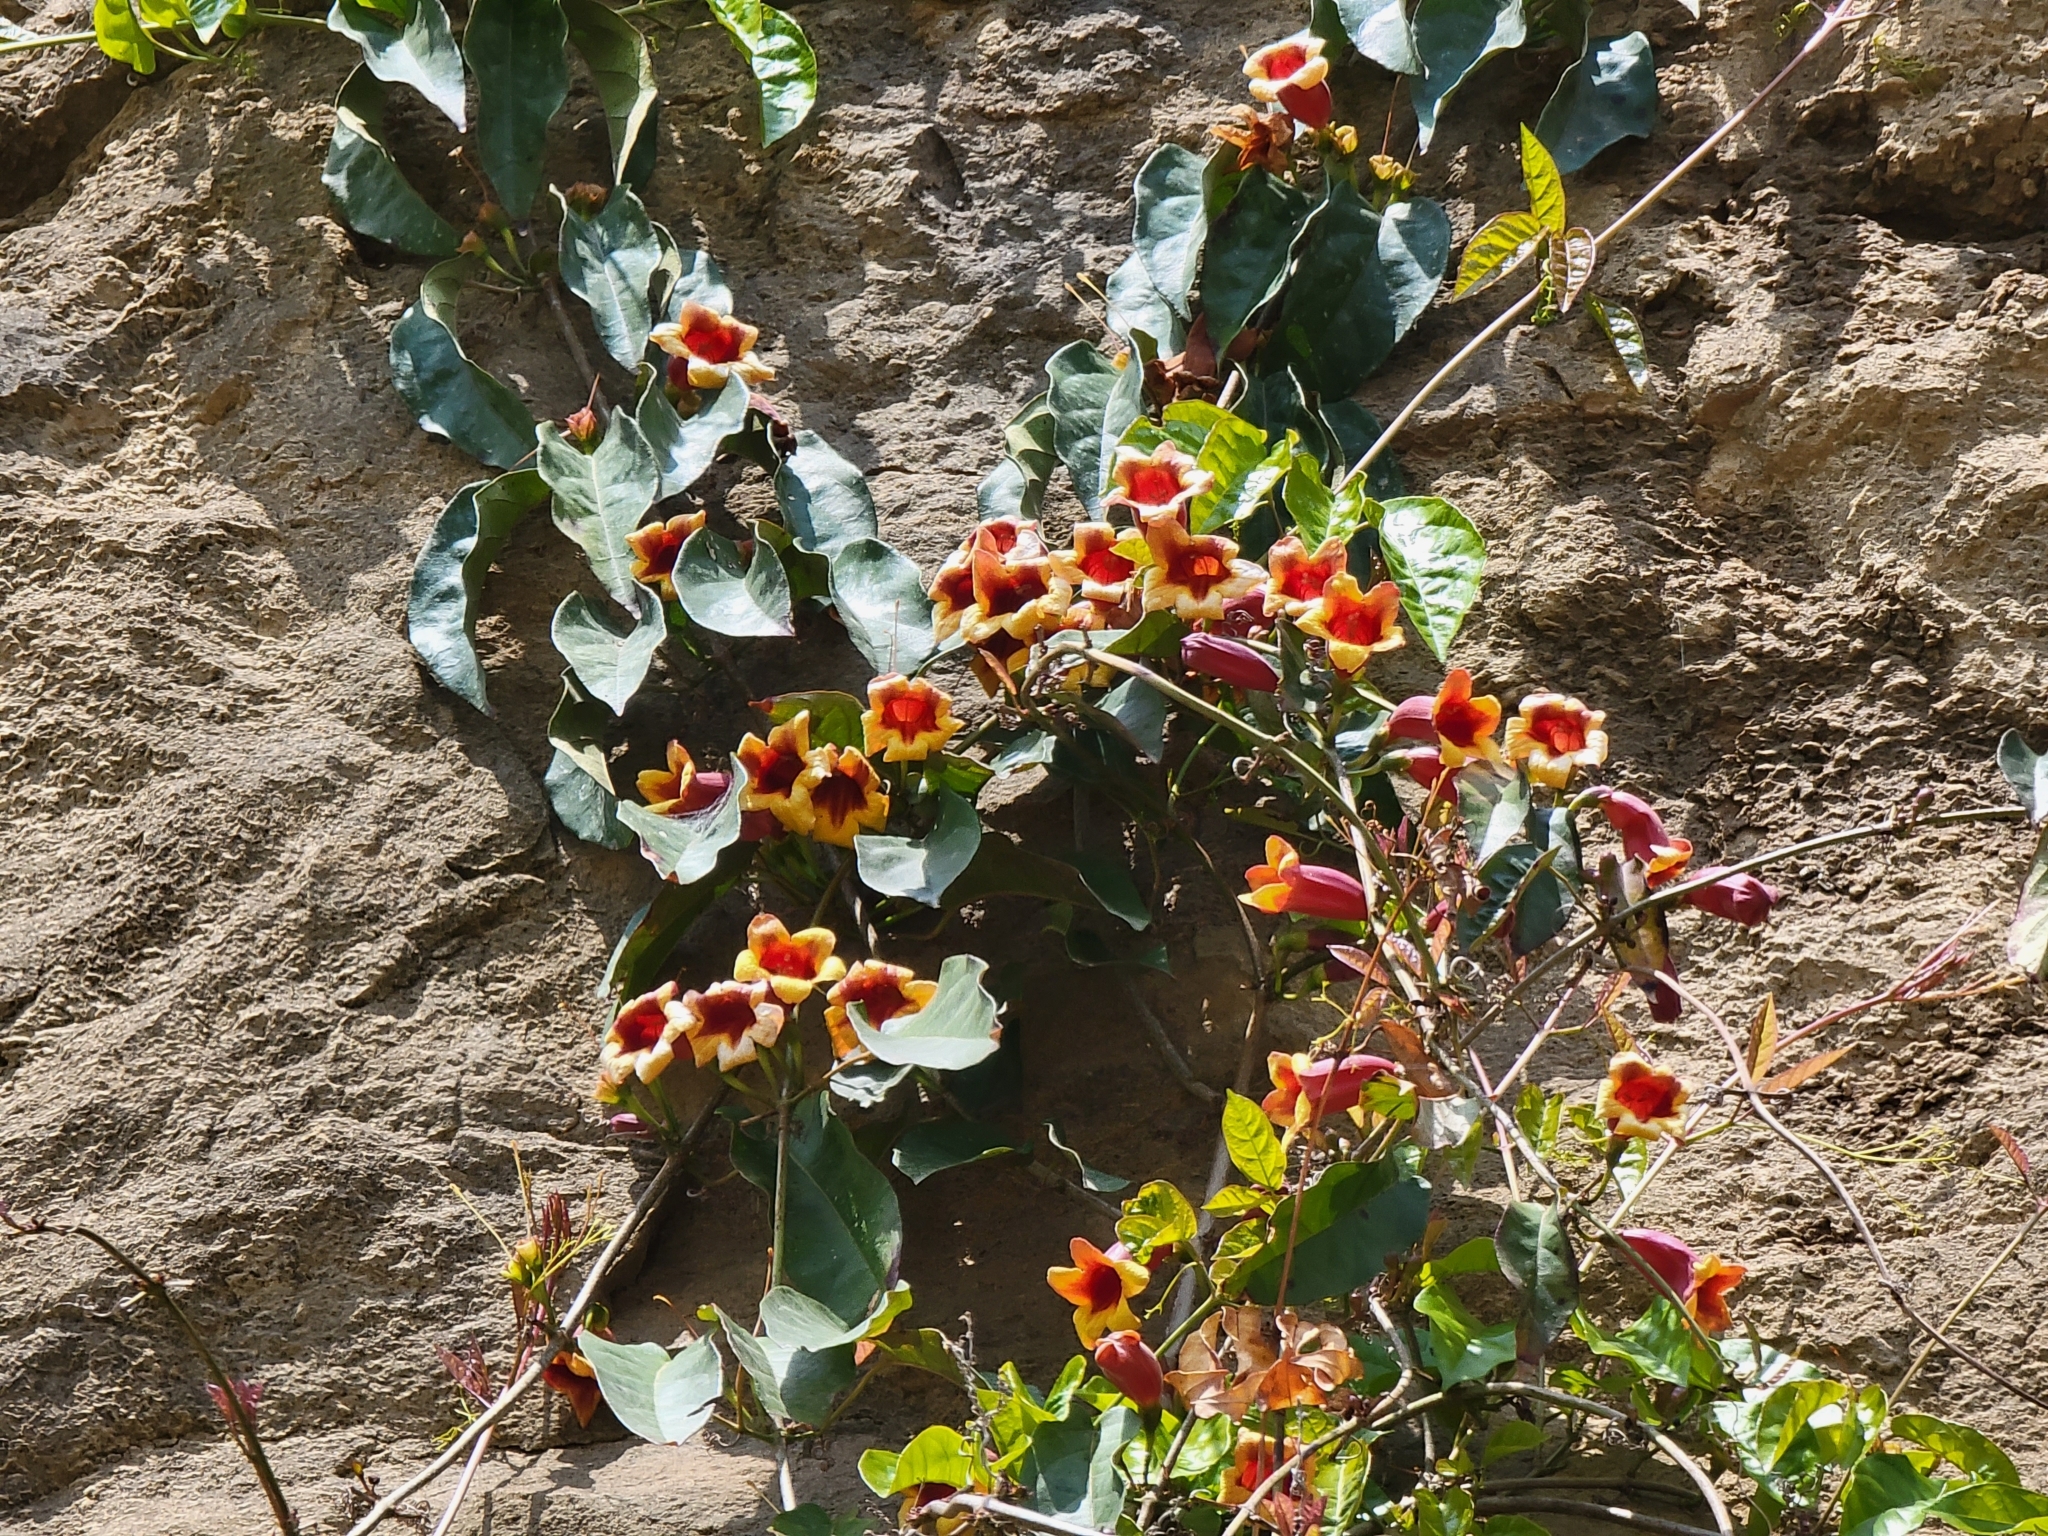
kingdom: Plantae
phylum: Tracheophyta
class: Magnoliopsida
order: Lamiales
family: Bignoniaceae
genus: Bignonia
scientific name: Bignonia capreolata
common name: Crossvine
